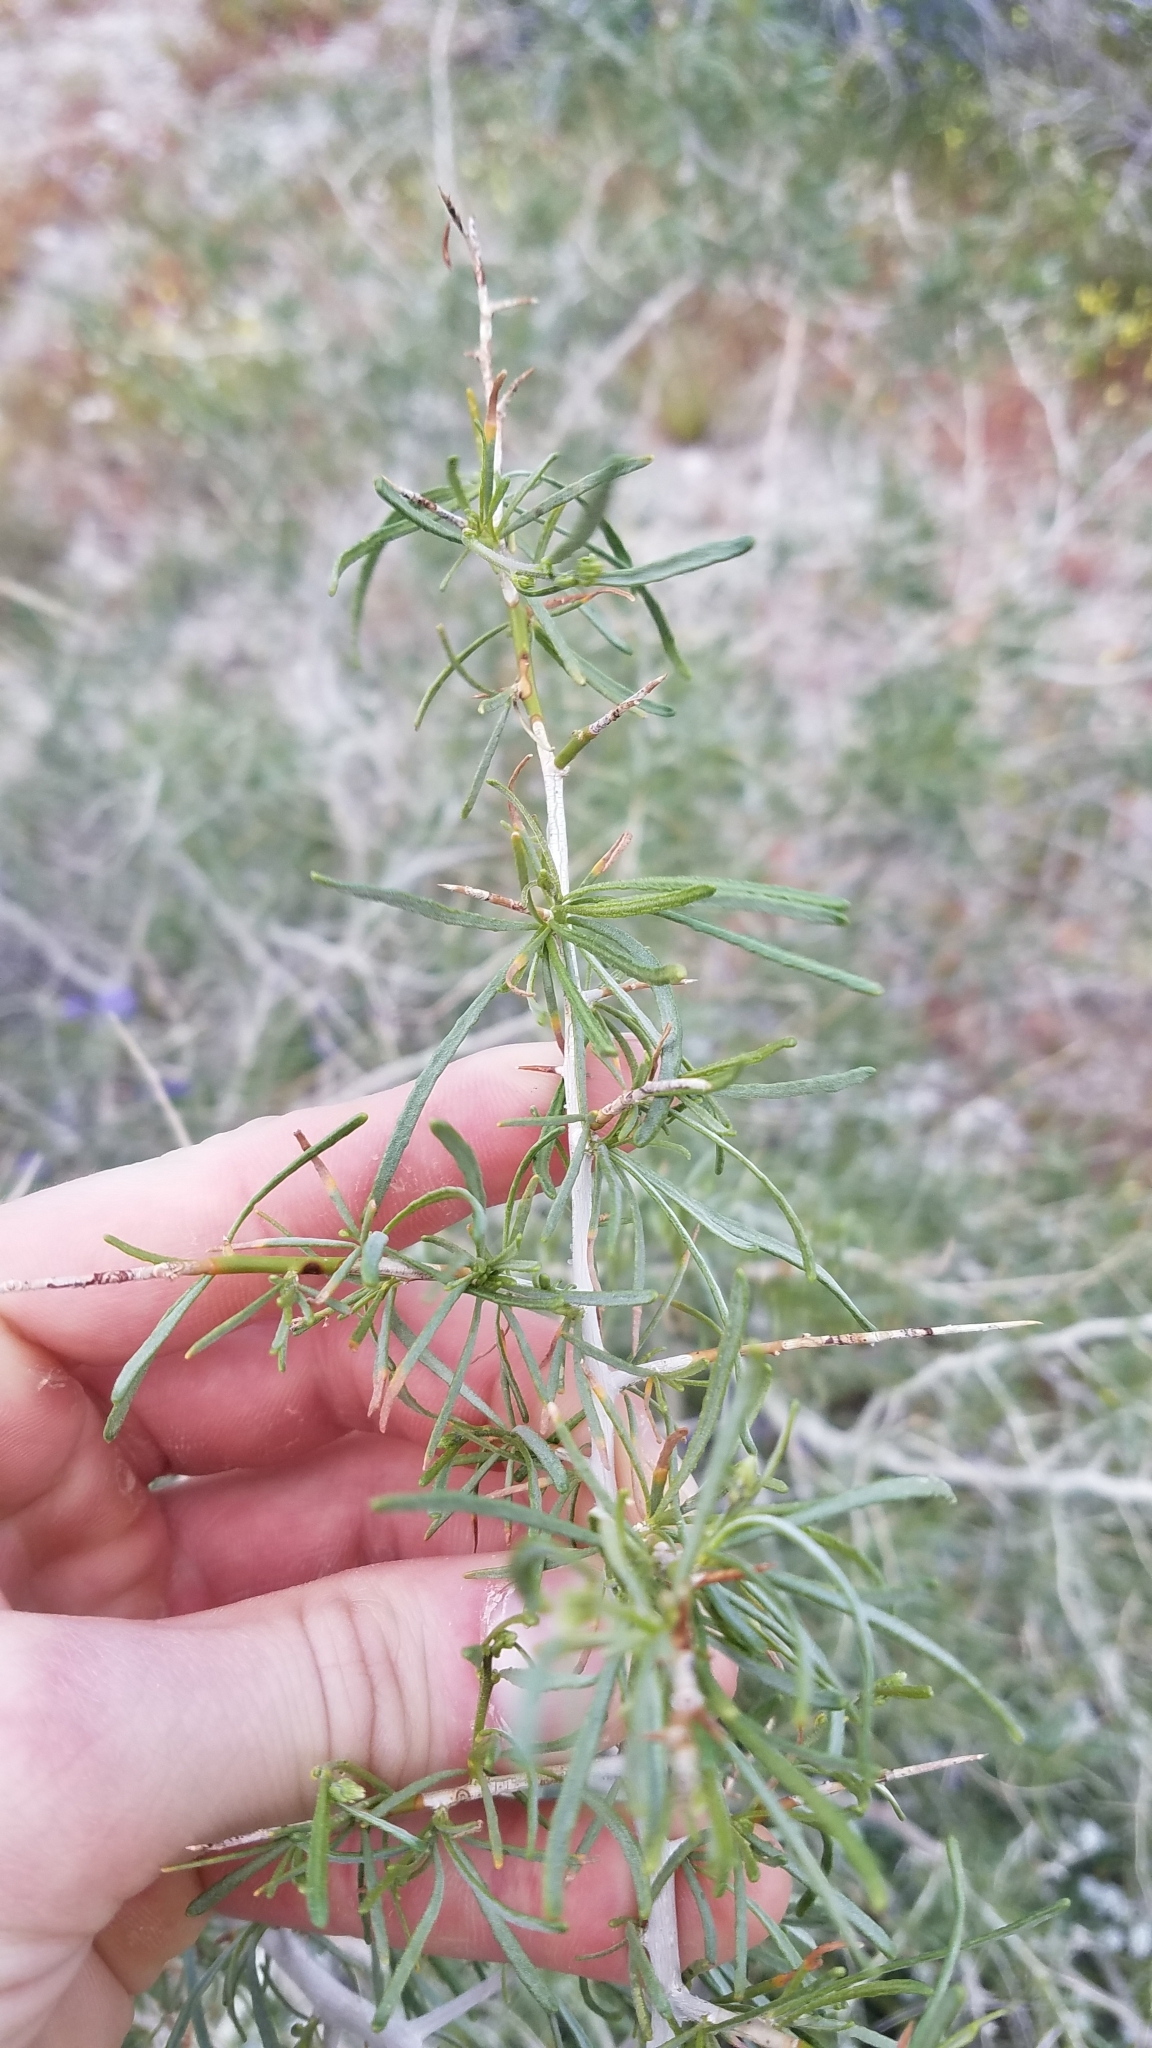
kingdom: Plantae
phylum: Tracheophyta
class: Magnoliopsida
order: Fabales
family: Fabaceae
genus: Psorothamnus
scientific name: Psorothamnus schottii
